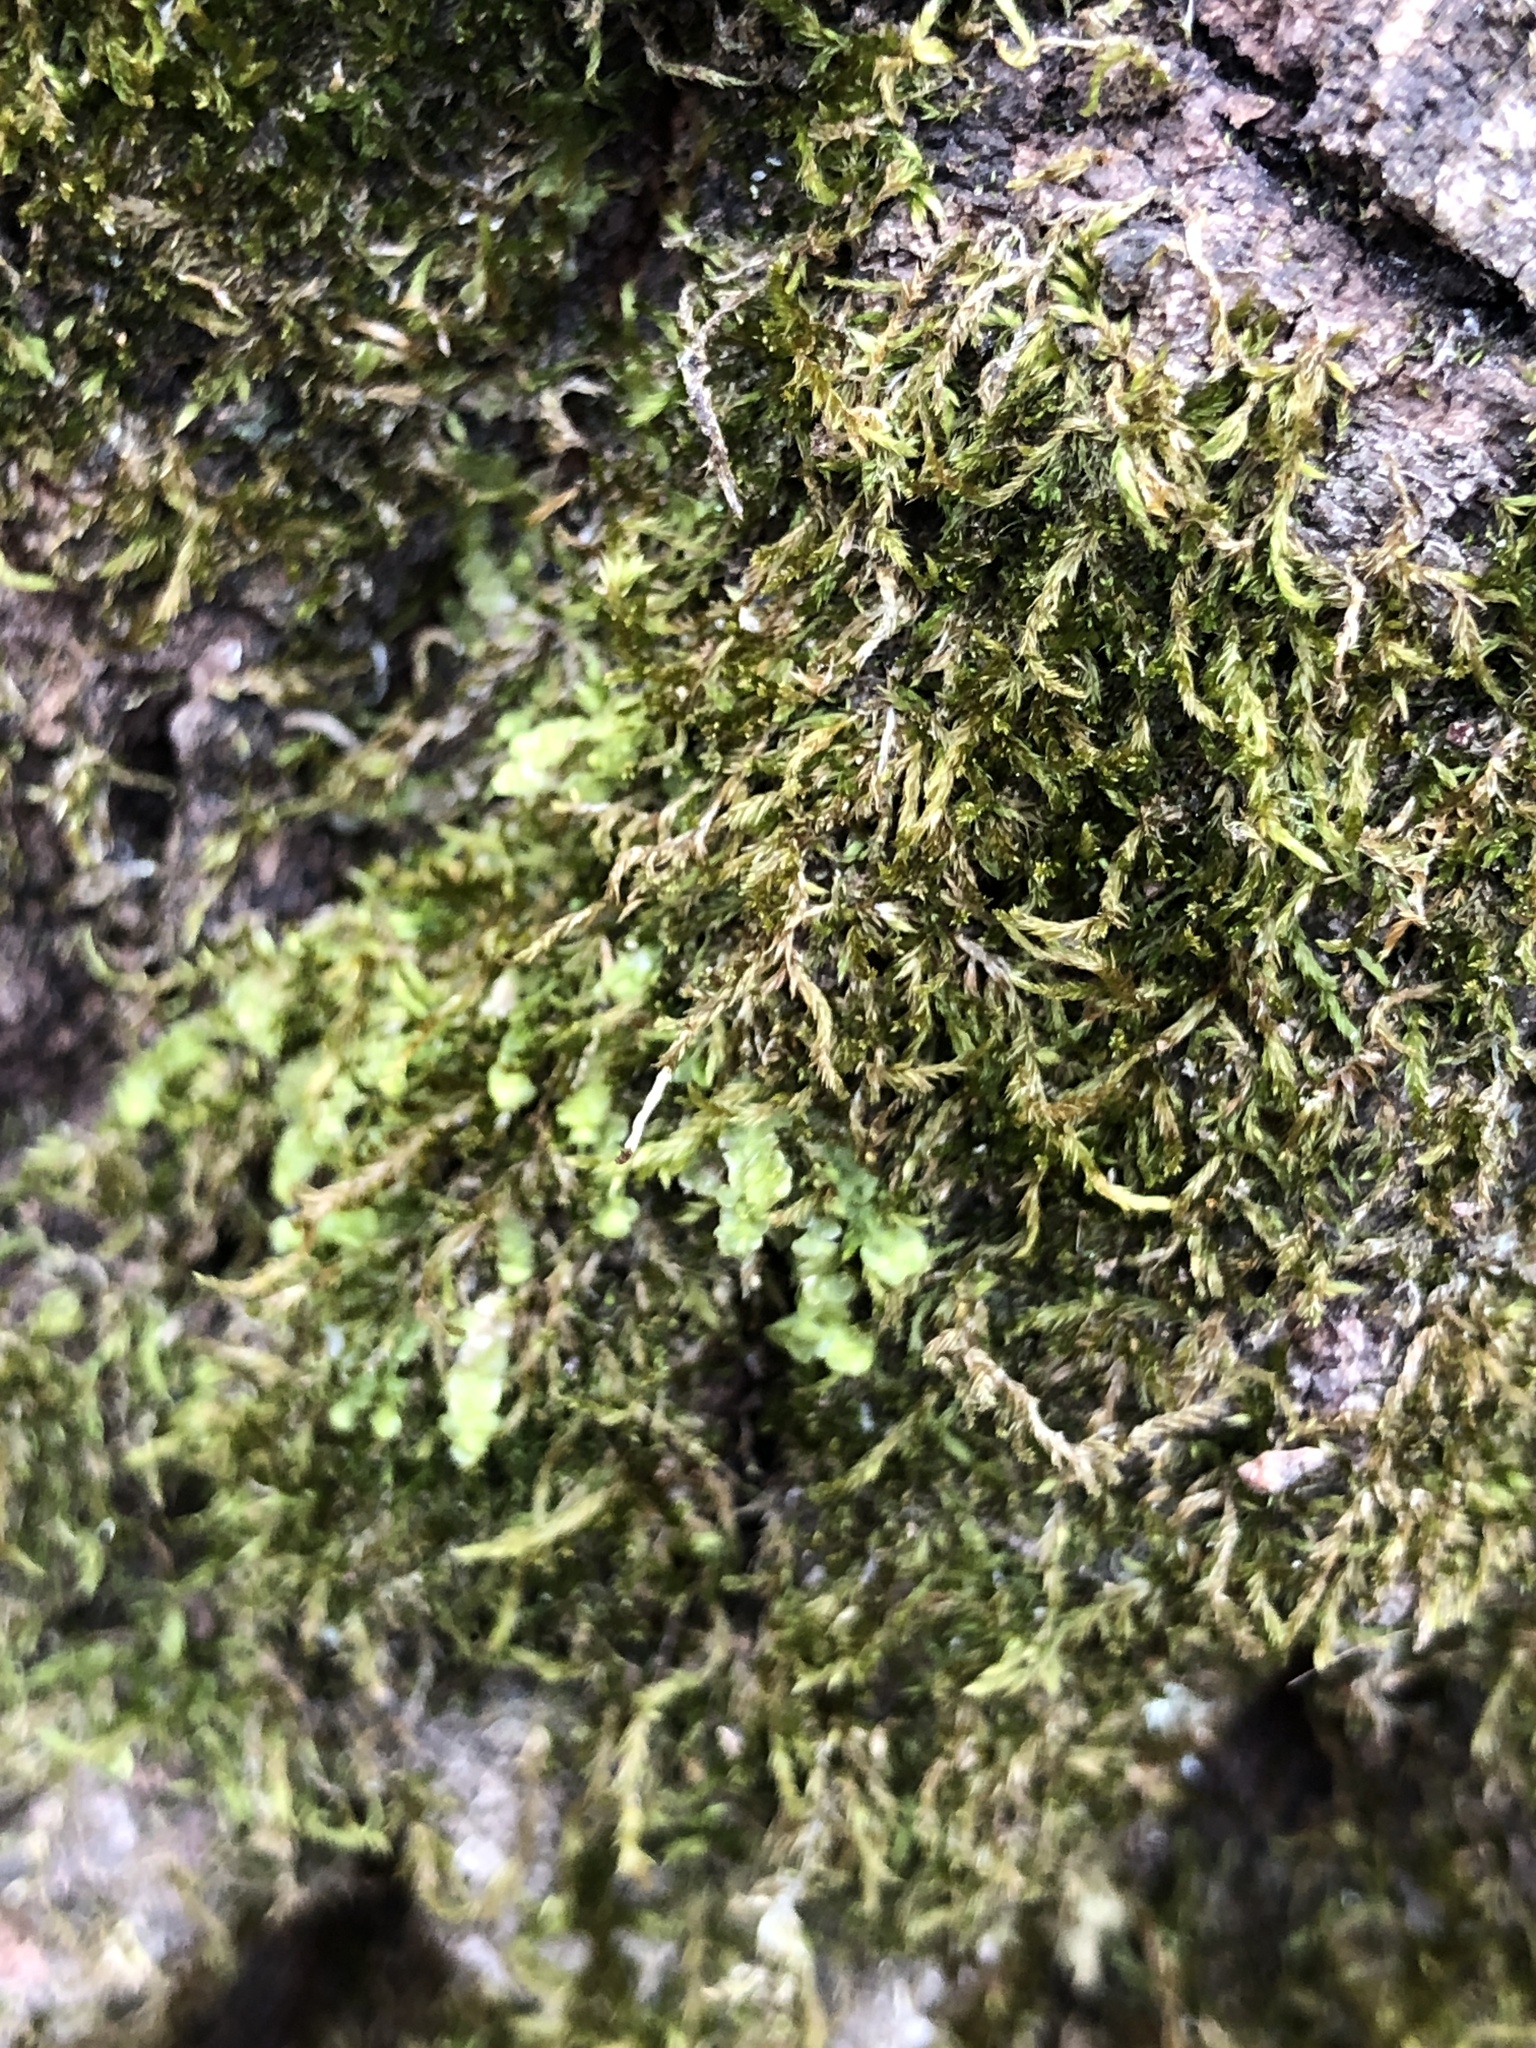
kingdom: Plantae
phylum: Marchantiophyta
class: Jungermanniopsida
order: Porellales
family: Radulaceae
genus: Radula
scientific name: Radula complanata
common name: Flat-leaved scalewort
